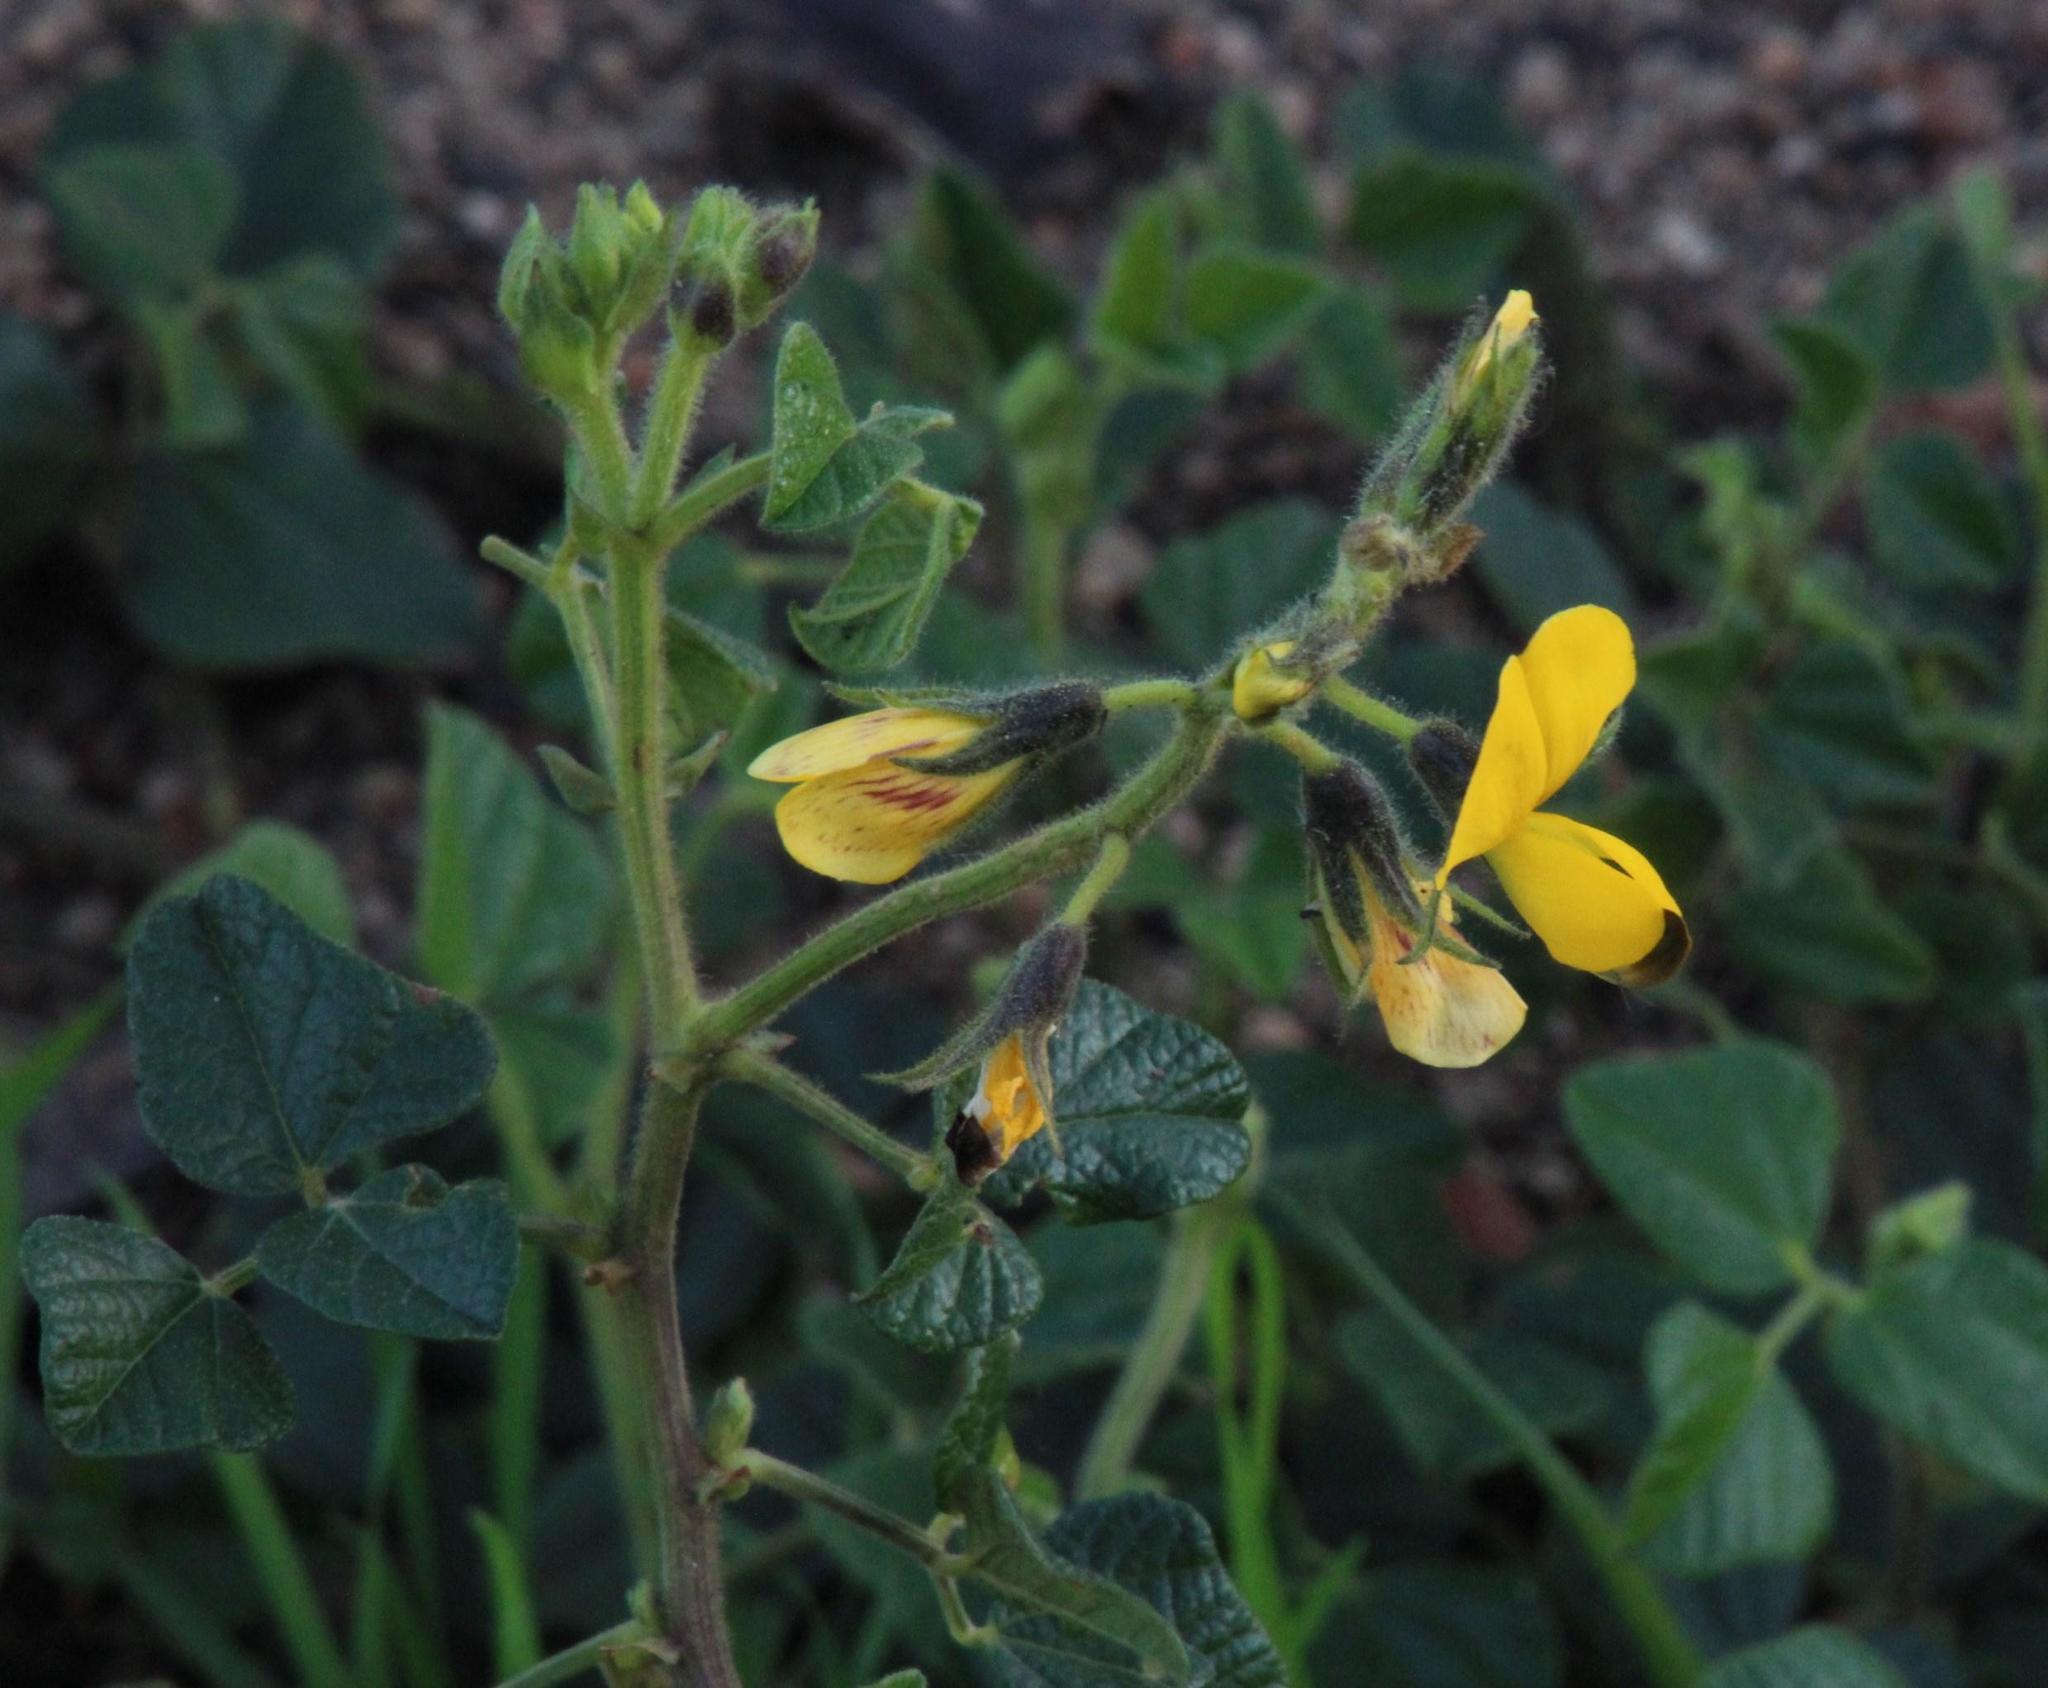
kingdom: Plantae
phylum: Tracheophyta
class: Magnoliopsida
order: Fabales
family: Fabaceae
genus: Bolusafra
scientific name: Bolusafra bituminosa
